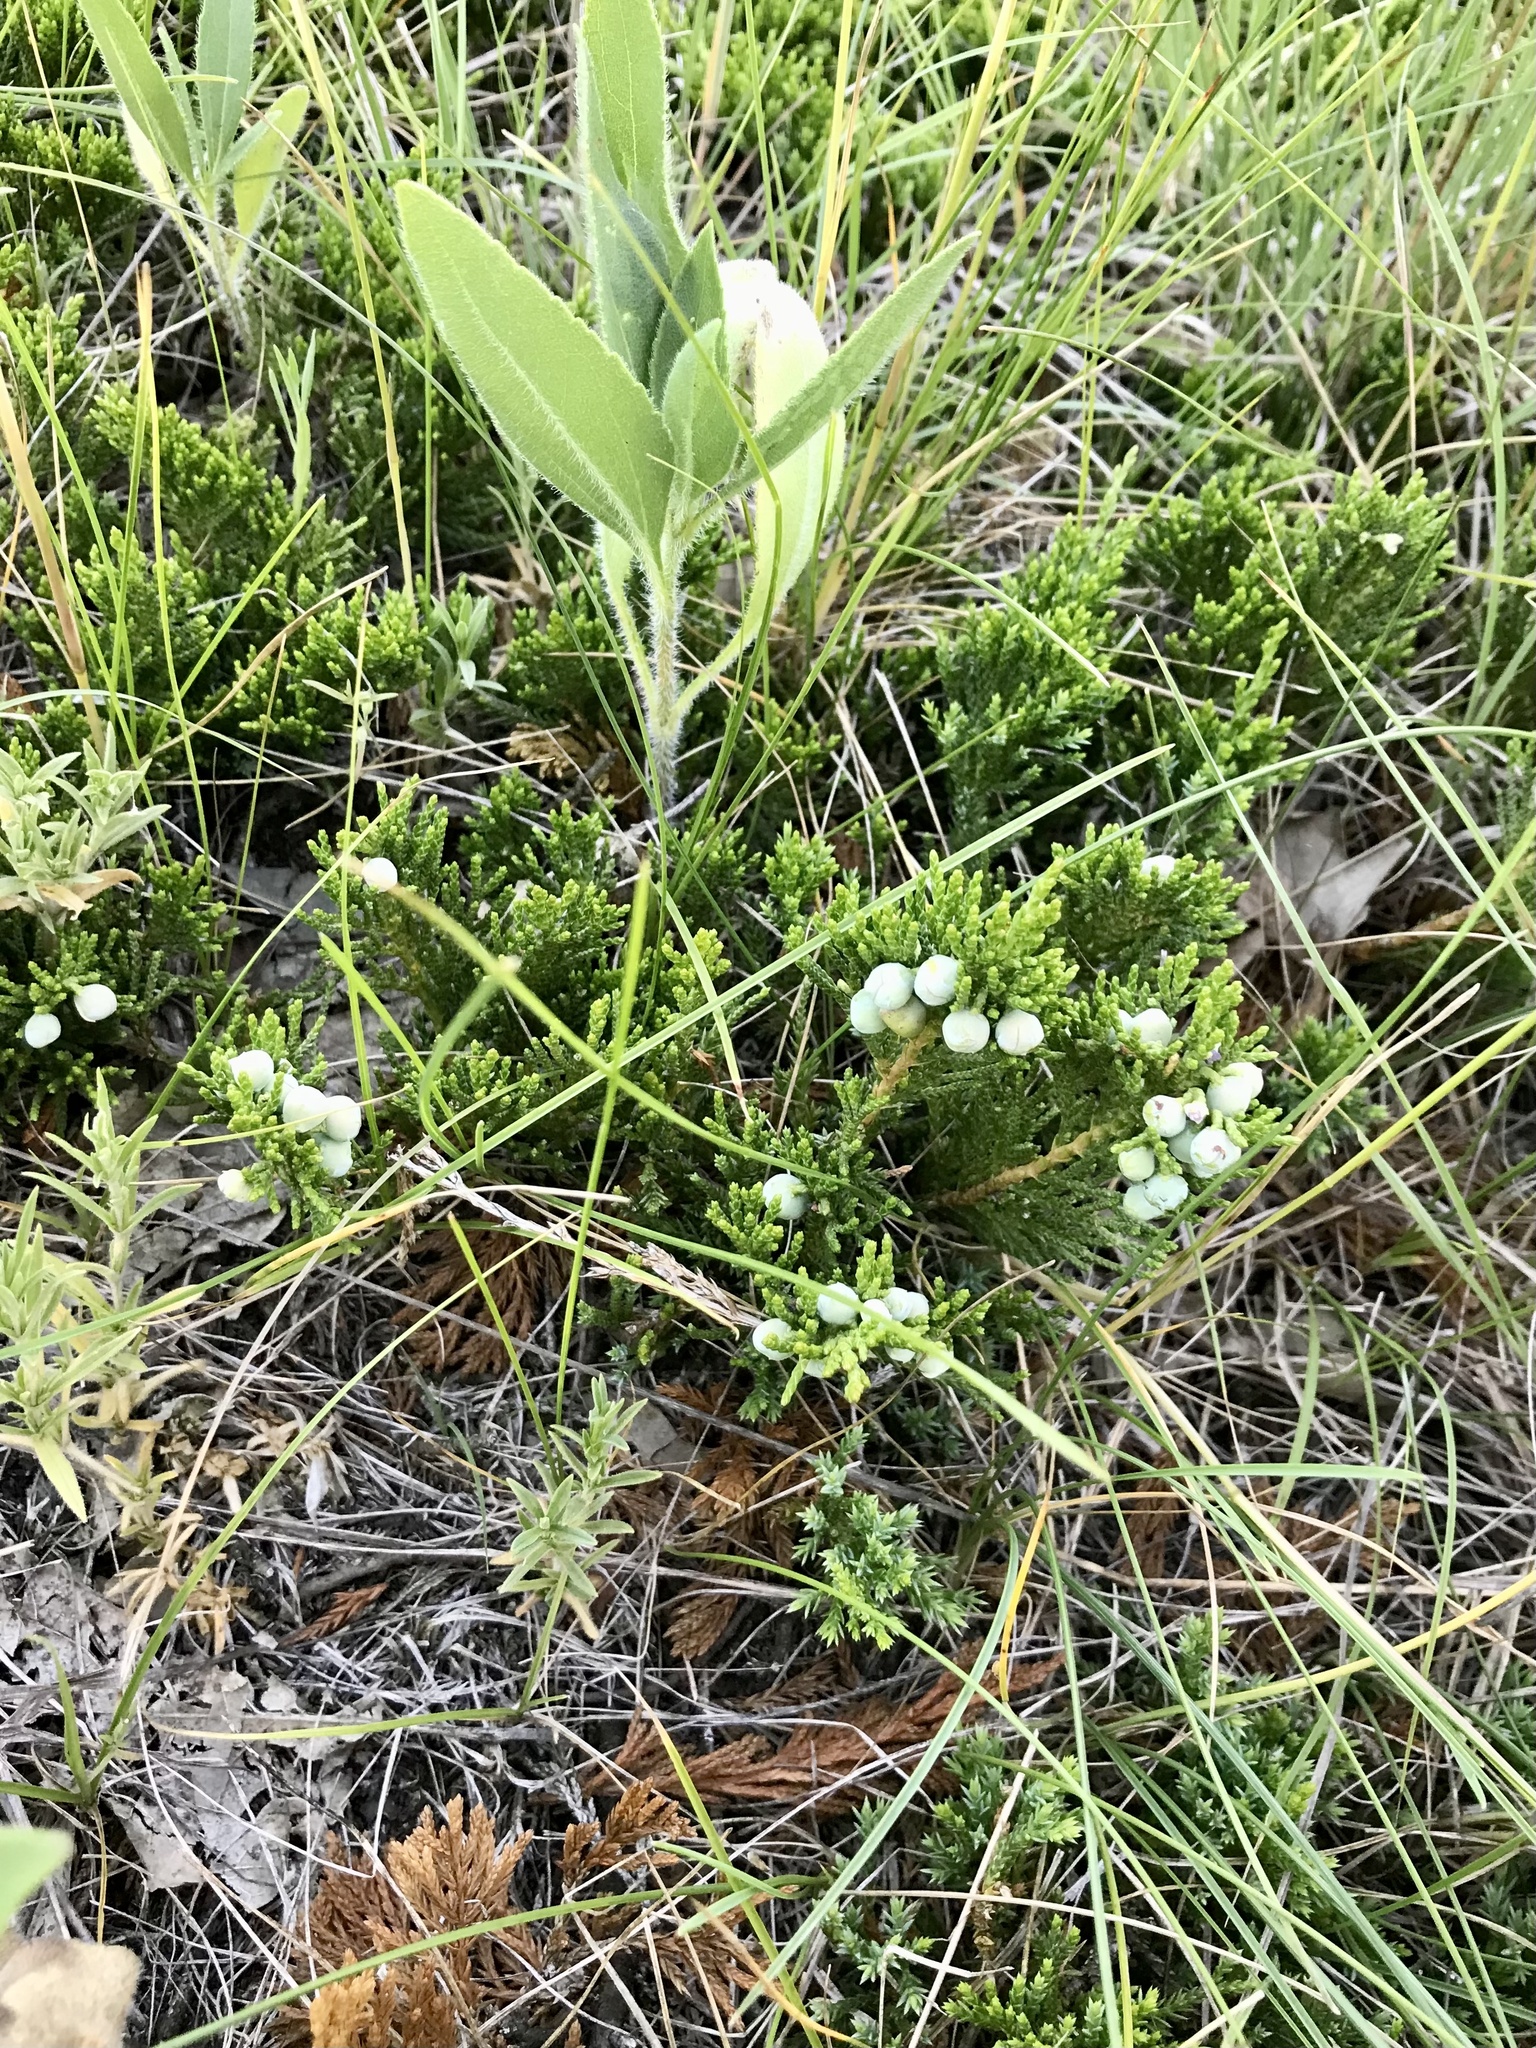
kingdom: Plantae
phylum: Tracheophyta
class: Pinopsida
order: Pinales
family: Cupressaceae
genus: Juniperus
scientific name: Juniperus horizontalis
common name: Creeping juniper
